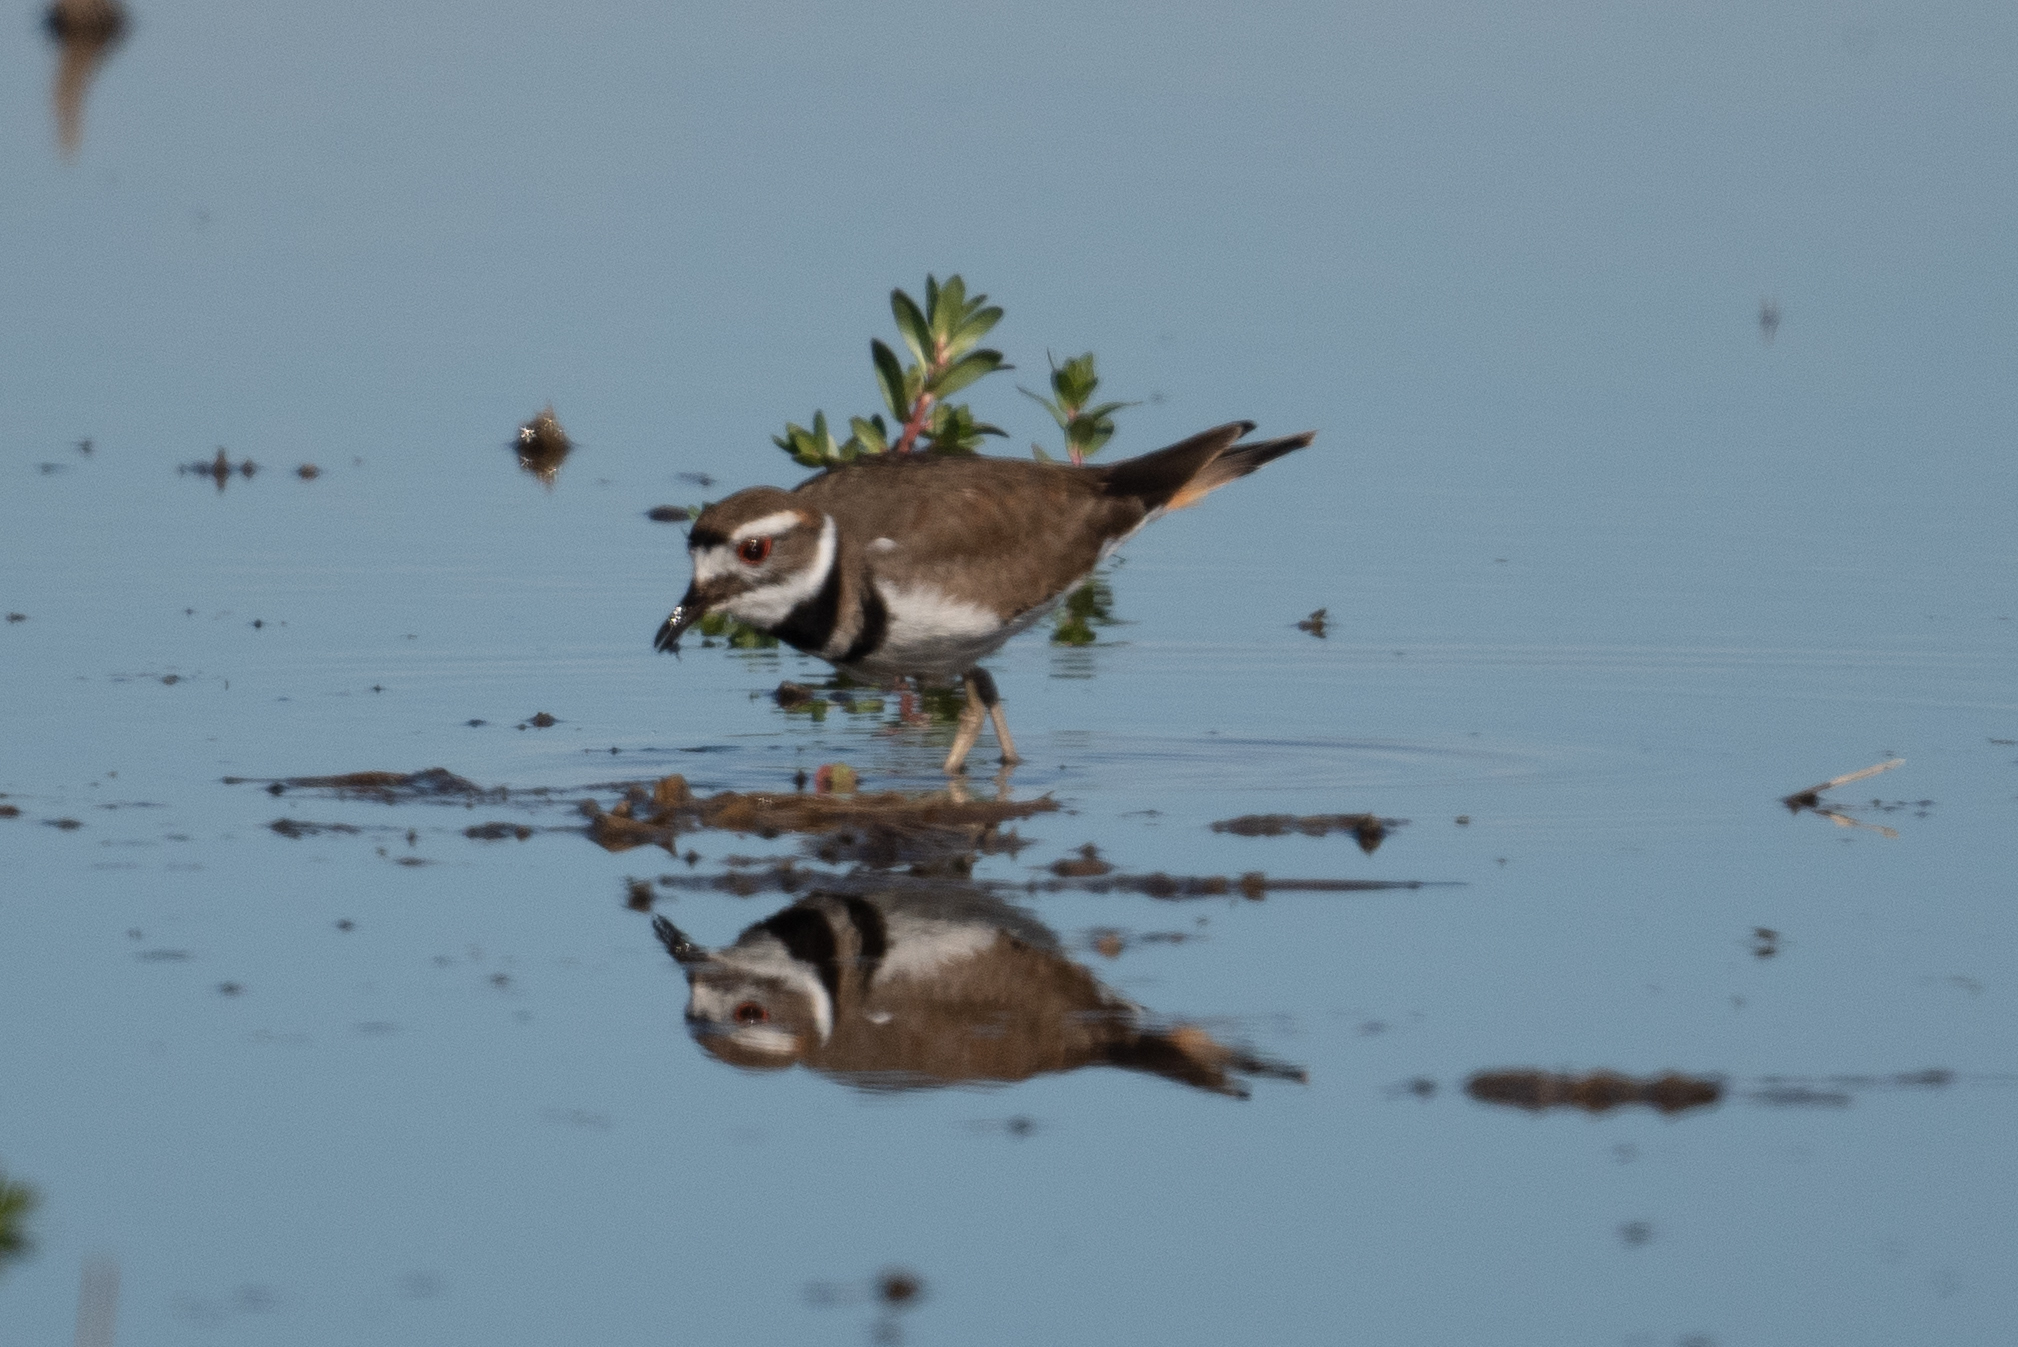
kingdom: Animalia
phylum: Chordata
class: Aves
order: Charadriiformes
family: Charadriidae
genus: Charadrius
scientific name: Charadrius vociferus
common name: Killdeer
